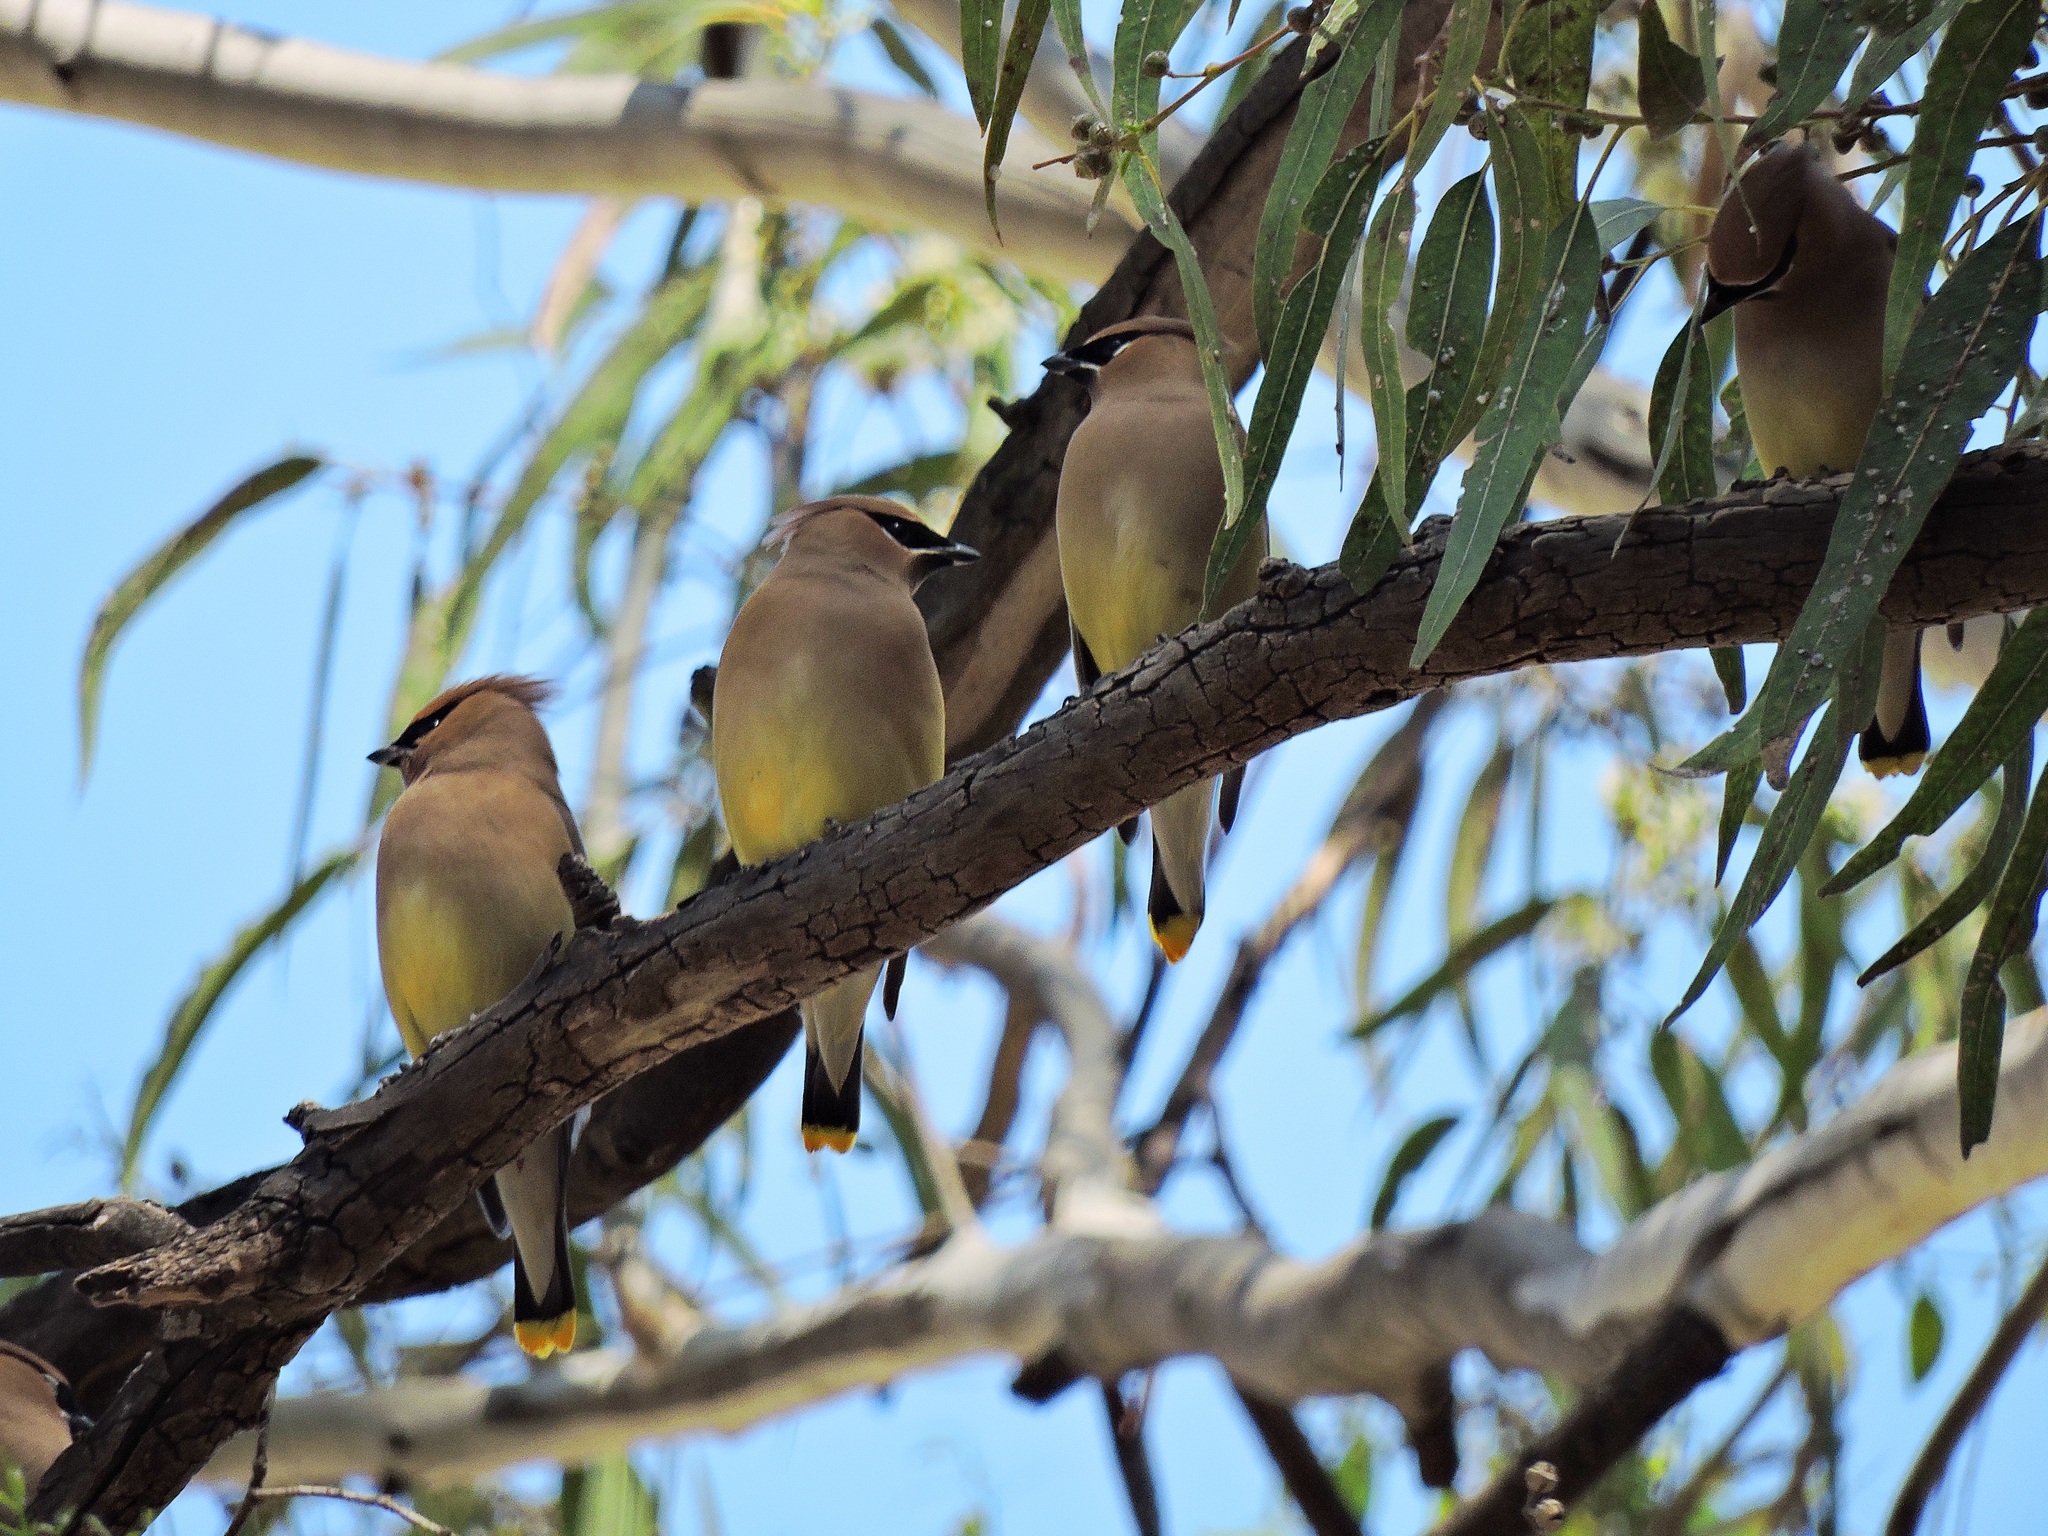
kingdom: Animalia
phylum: Chordata
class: Aves
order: Passeriformes
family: Bombycillidae
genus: Bombycilla
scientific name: Bombycilla cedrorum
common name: Cedar waxwing
